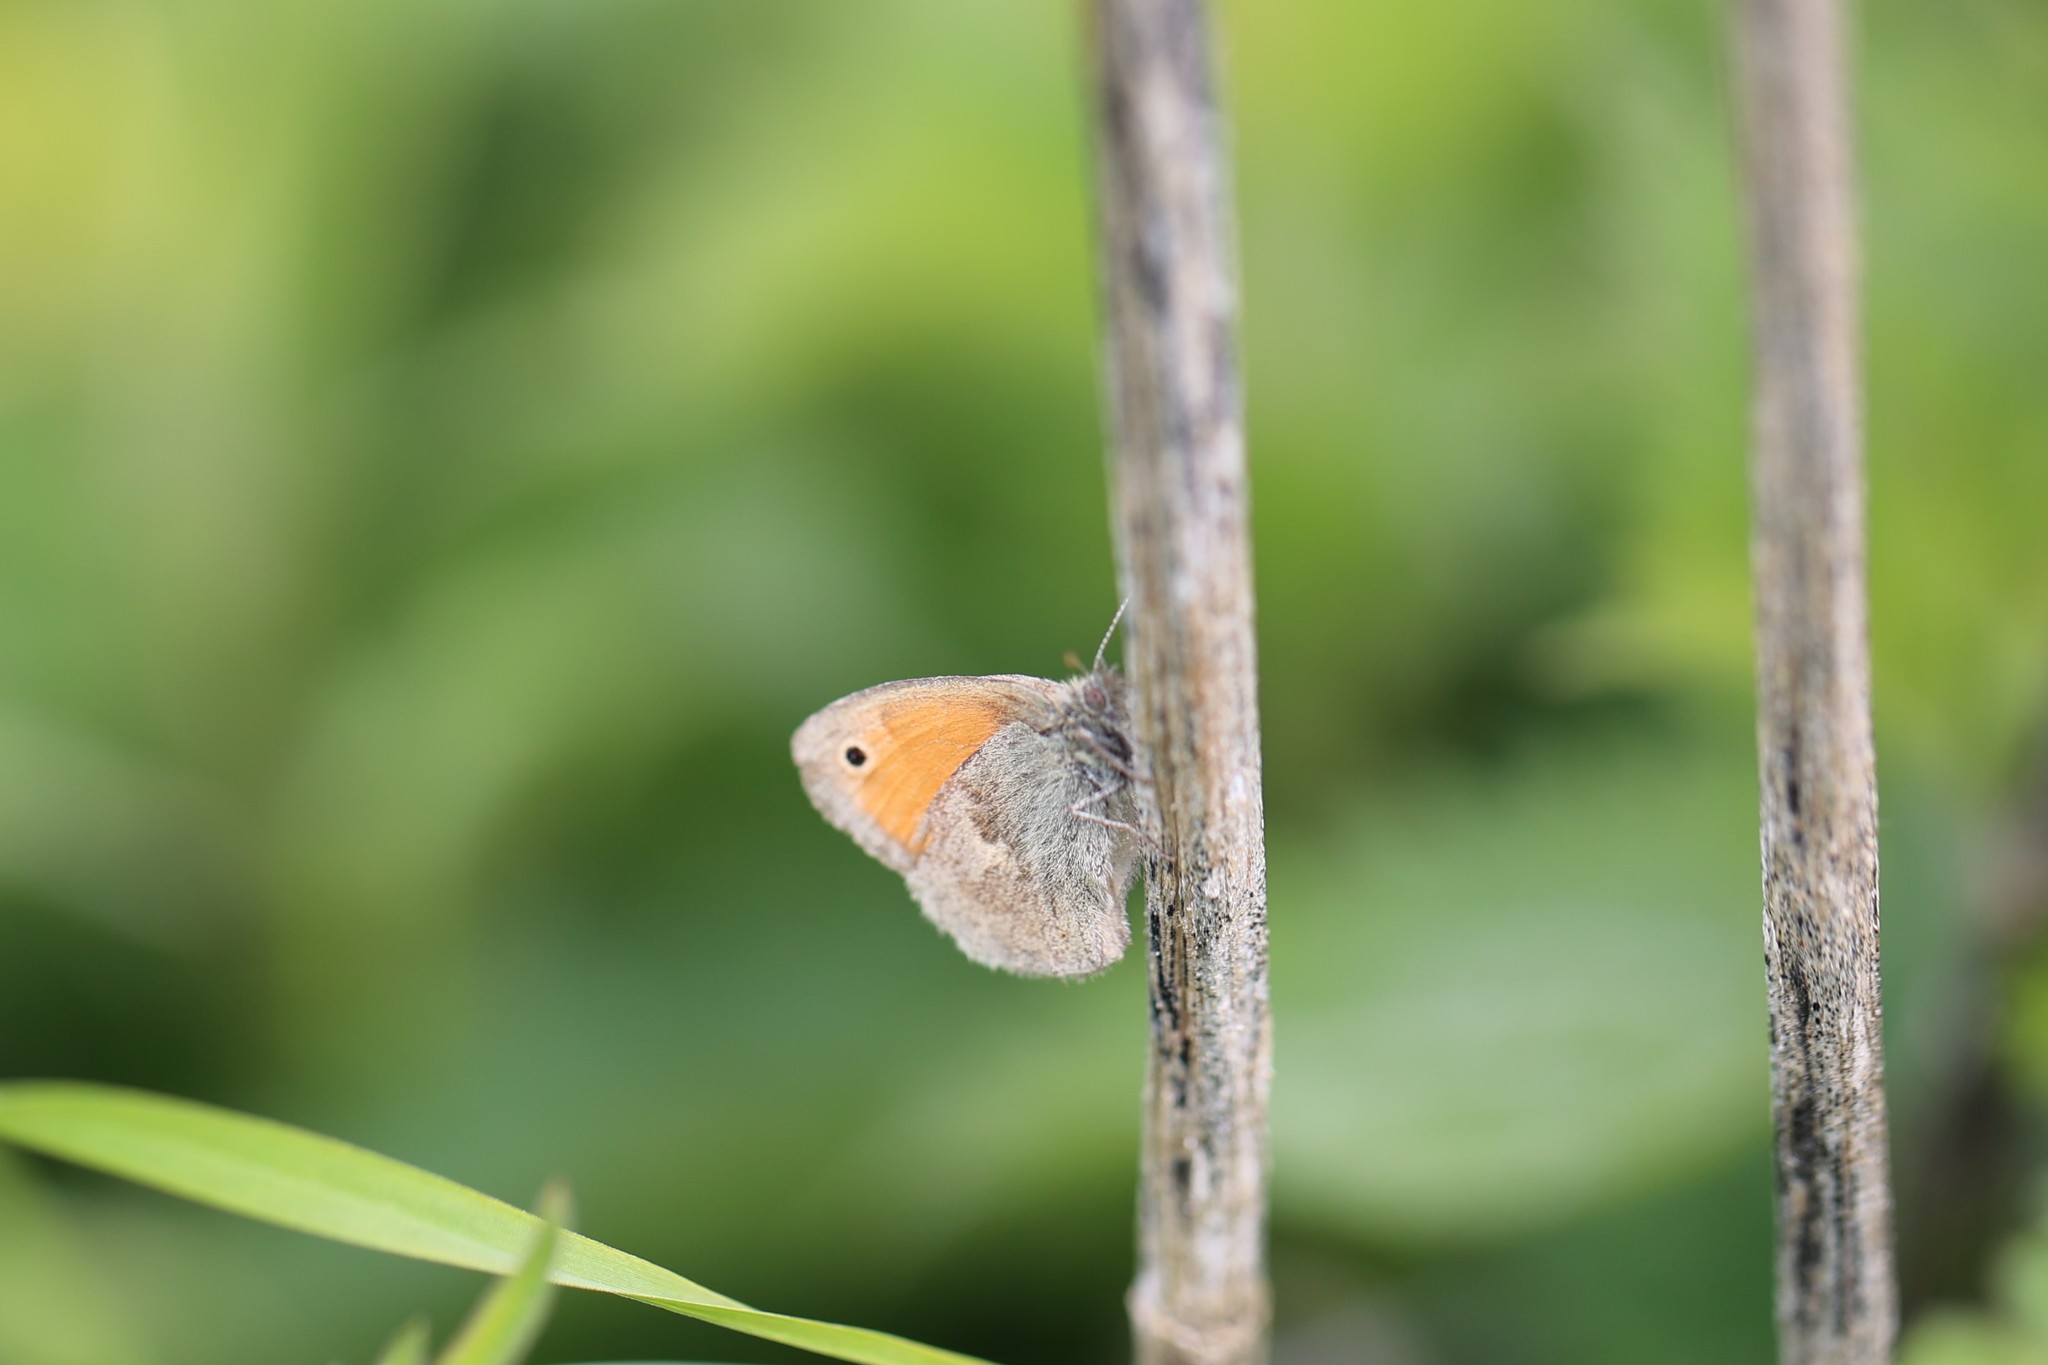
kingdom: Animalia
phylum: Arthropoda
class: Insecta
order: Lepidoptera
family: Nymphalidae
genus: Coenonympha
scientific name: Coenonympha pamphilus
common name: Small heath
